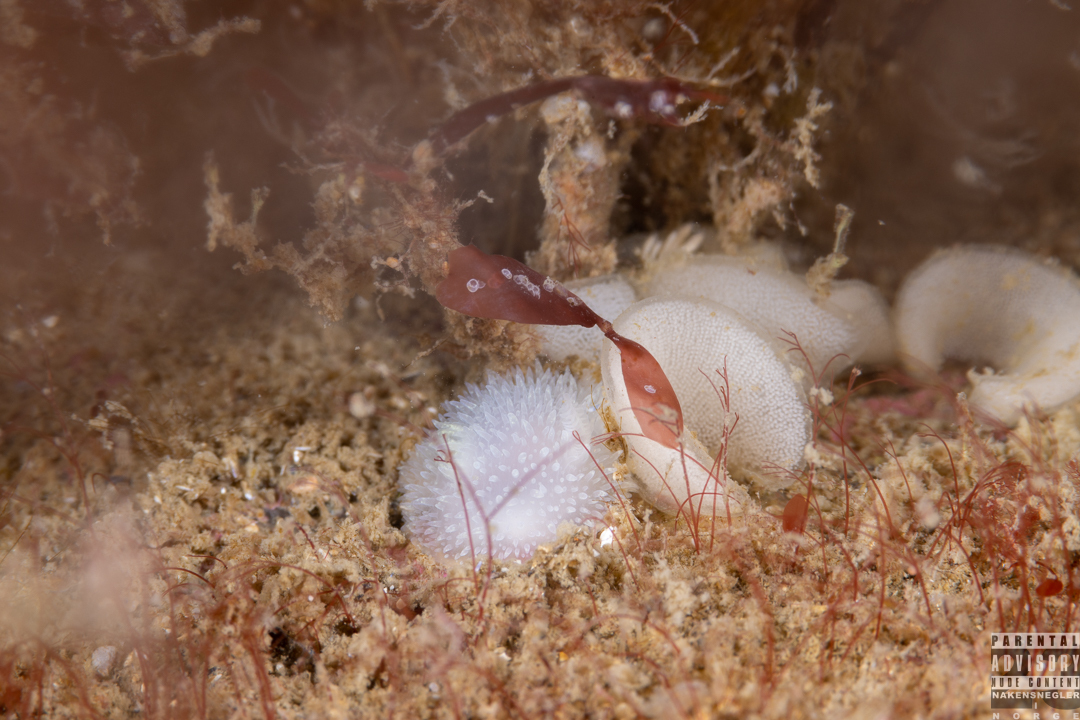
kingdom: Animalia
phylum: Mollusca
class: Gastropoda
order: Nudibranchia
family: Onchidorididae
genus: Acanthodoris
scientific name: Acanthodoris pilosa
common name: Hairy spiny doris
